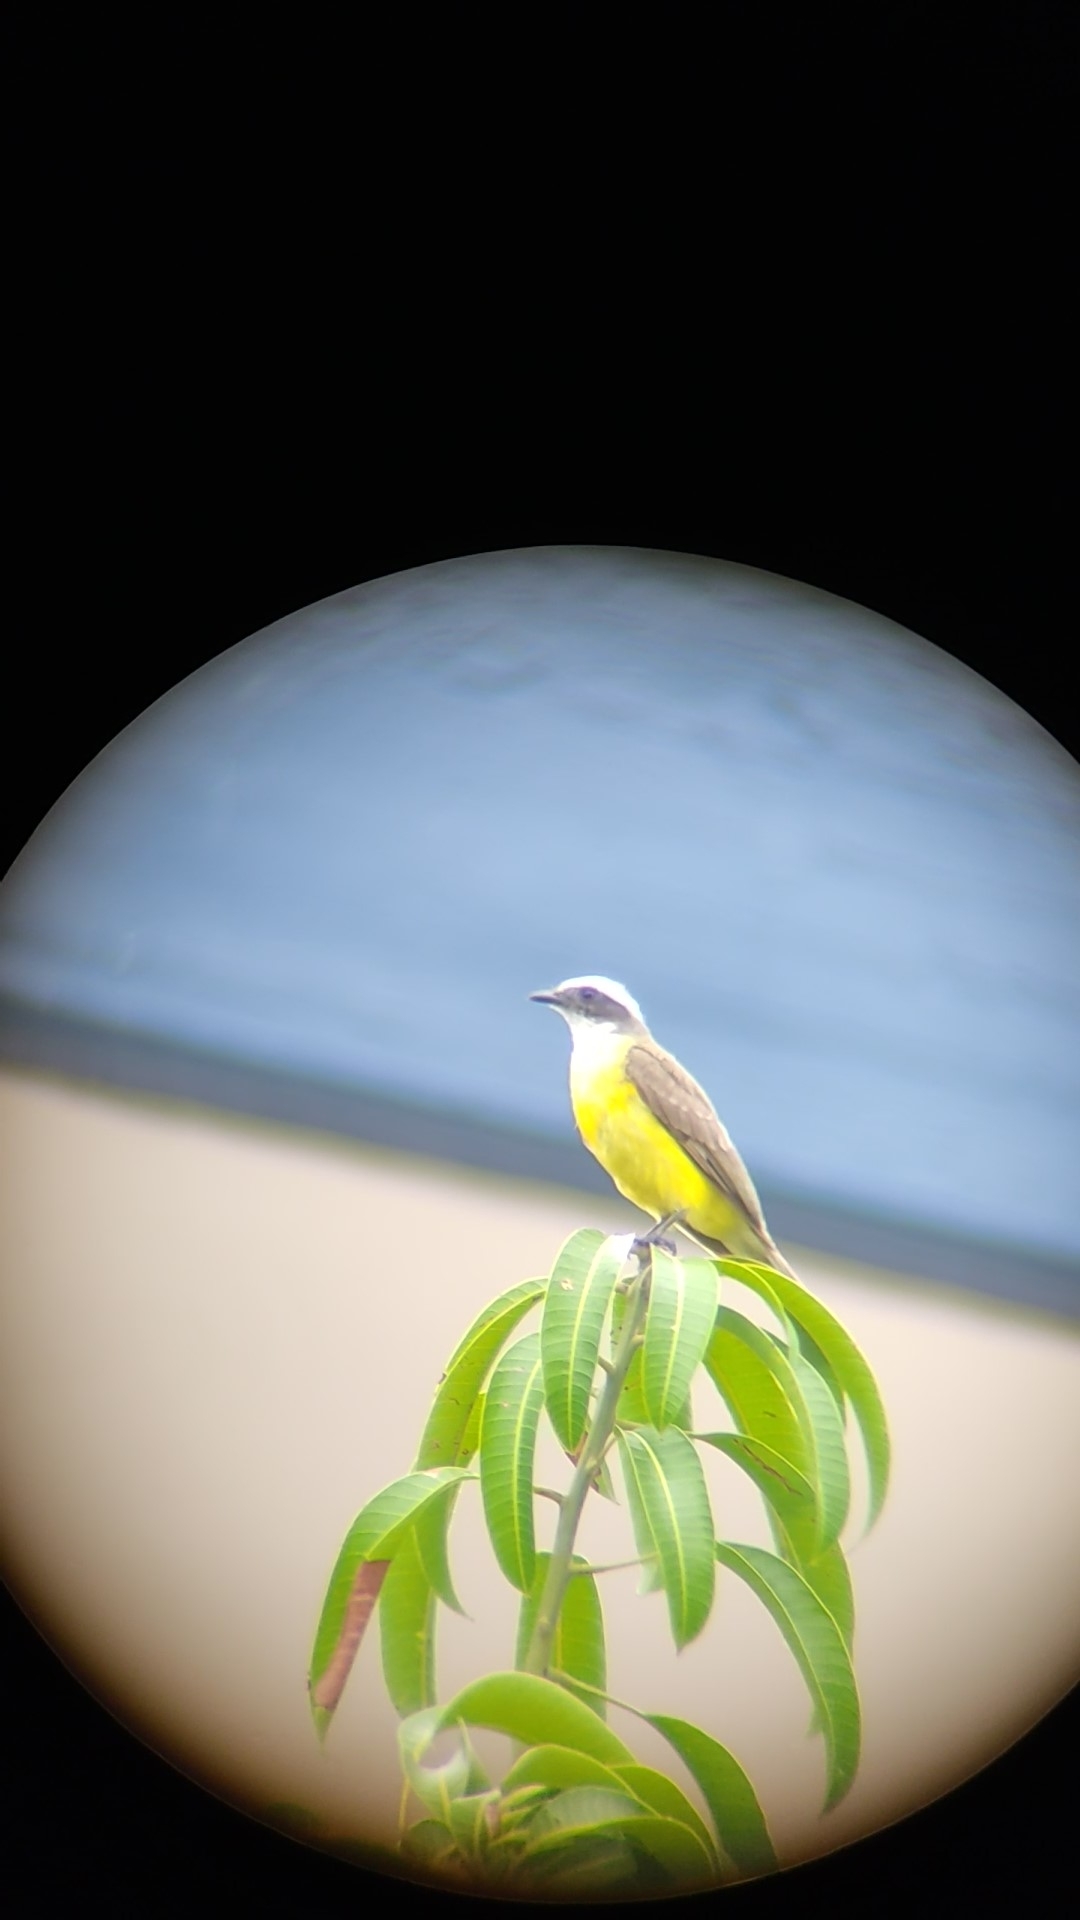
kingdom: Animalia
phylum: Chordata
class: Aves
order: Passeriformes
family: Tyrannidae
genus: Myiozetetes
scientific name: Myiozetetes similis
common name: Social flycatcher
